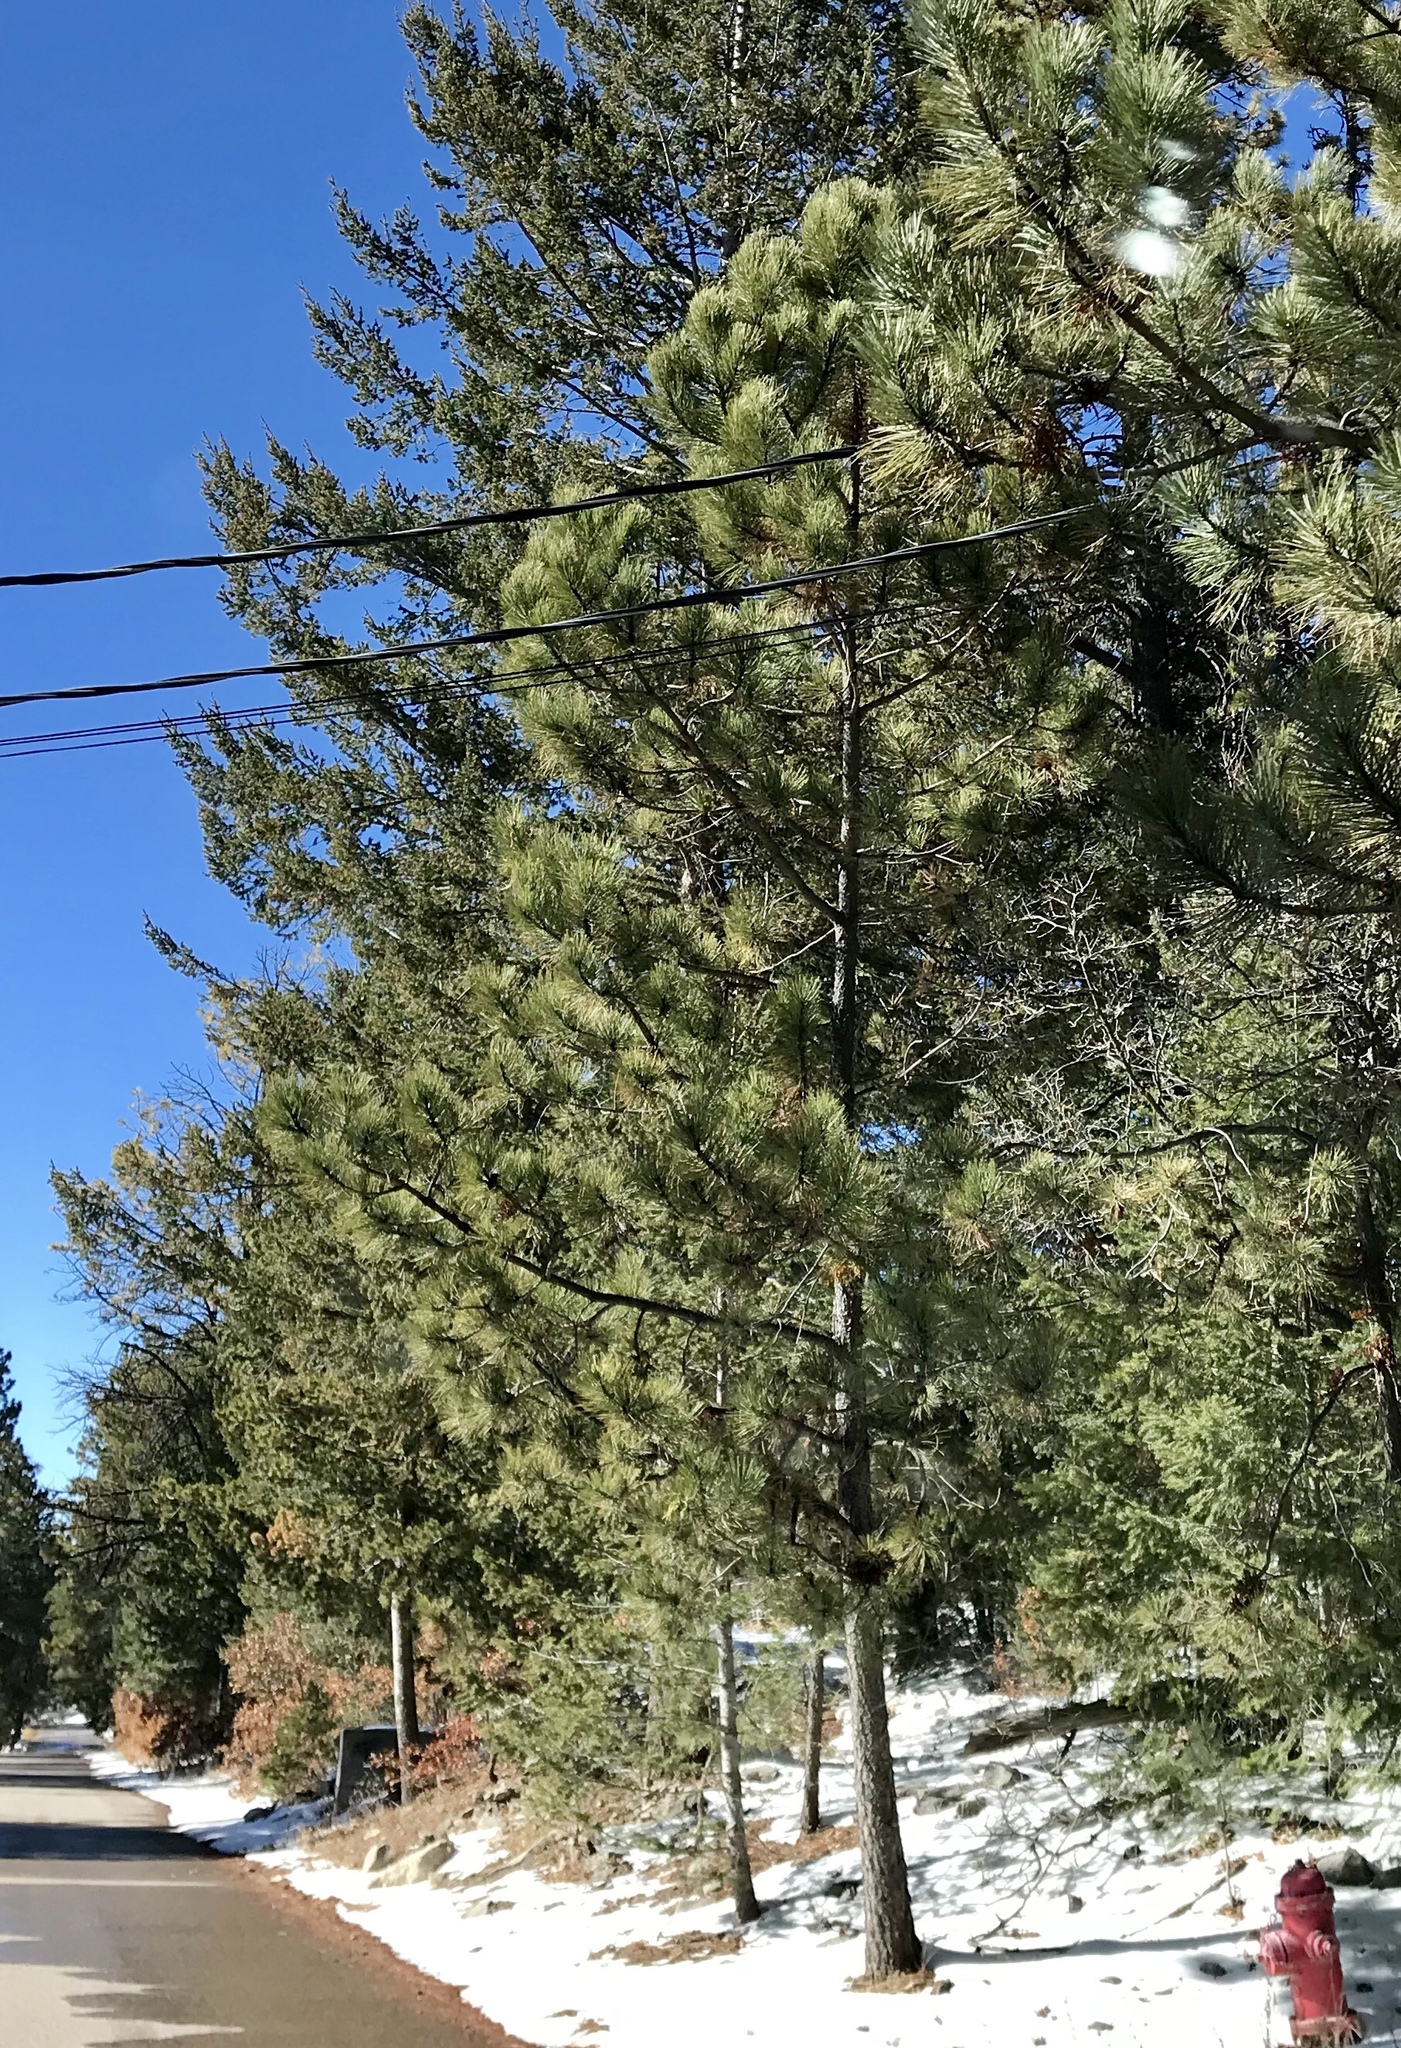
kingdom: Plantae
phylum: Tracheophyta
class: Pinopsida
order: Pinales
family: Pinaceae
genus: Pinus
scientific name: Pinus ponderosa
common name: Western yellow-pine
